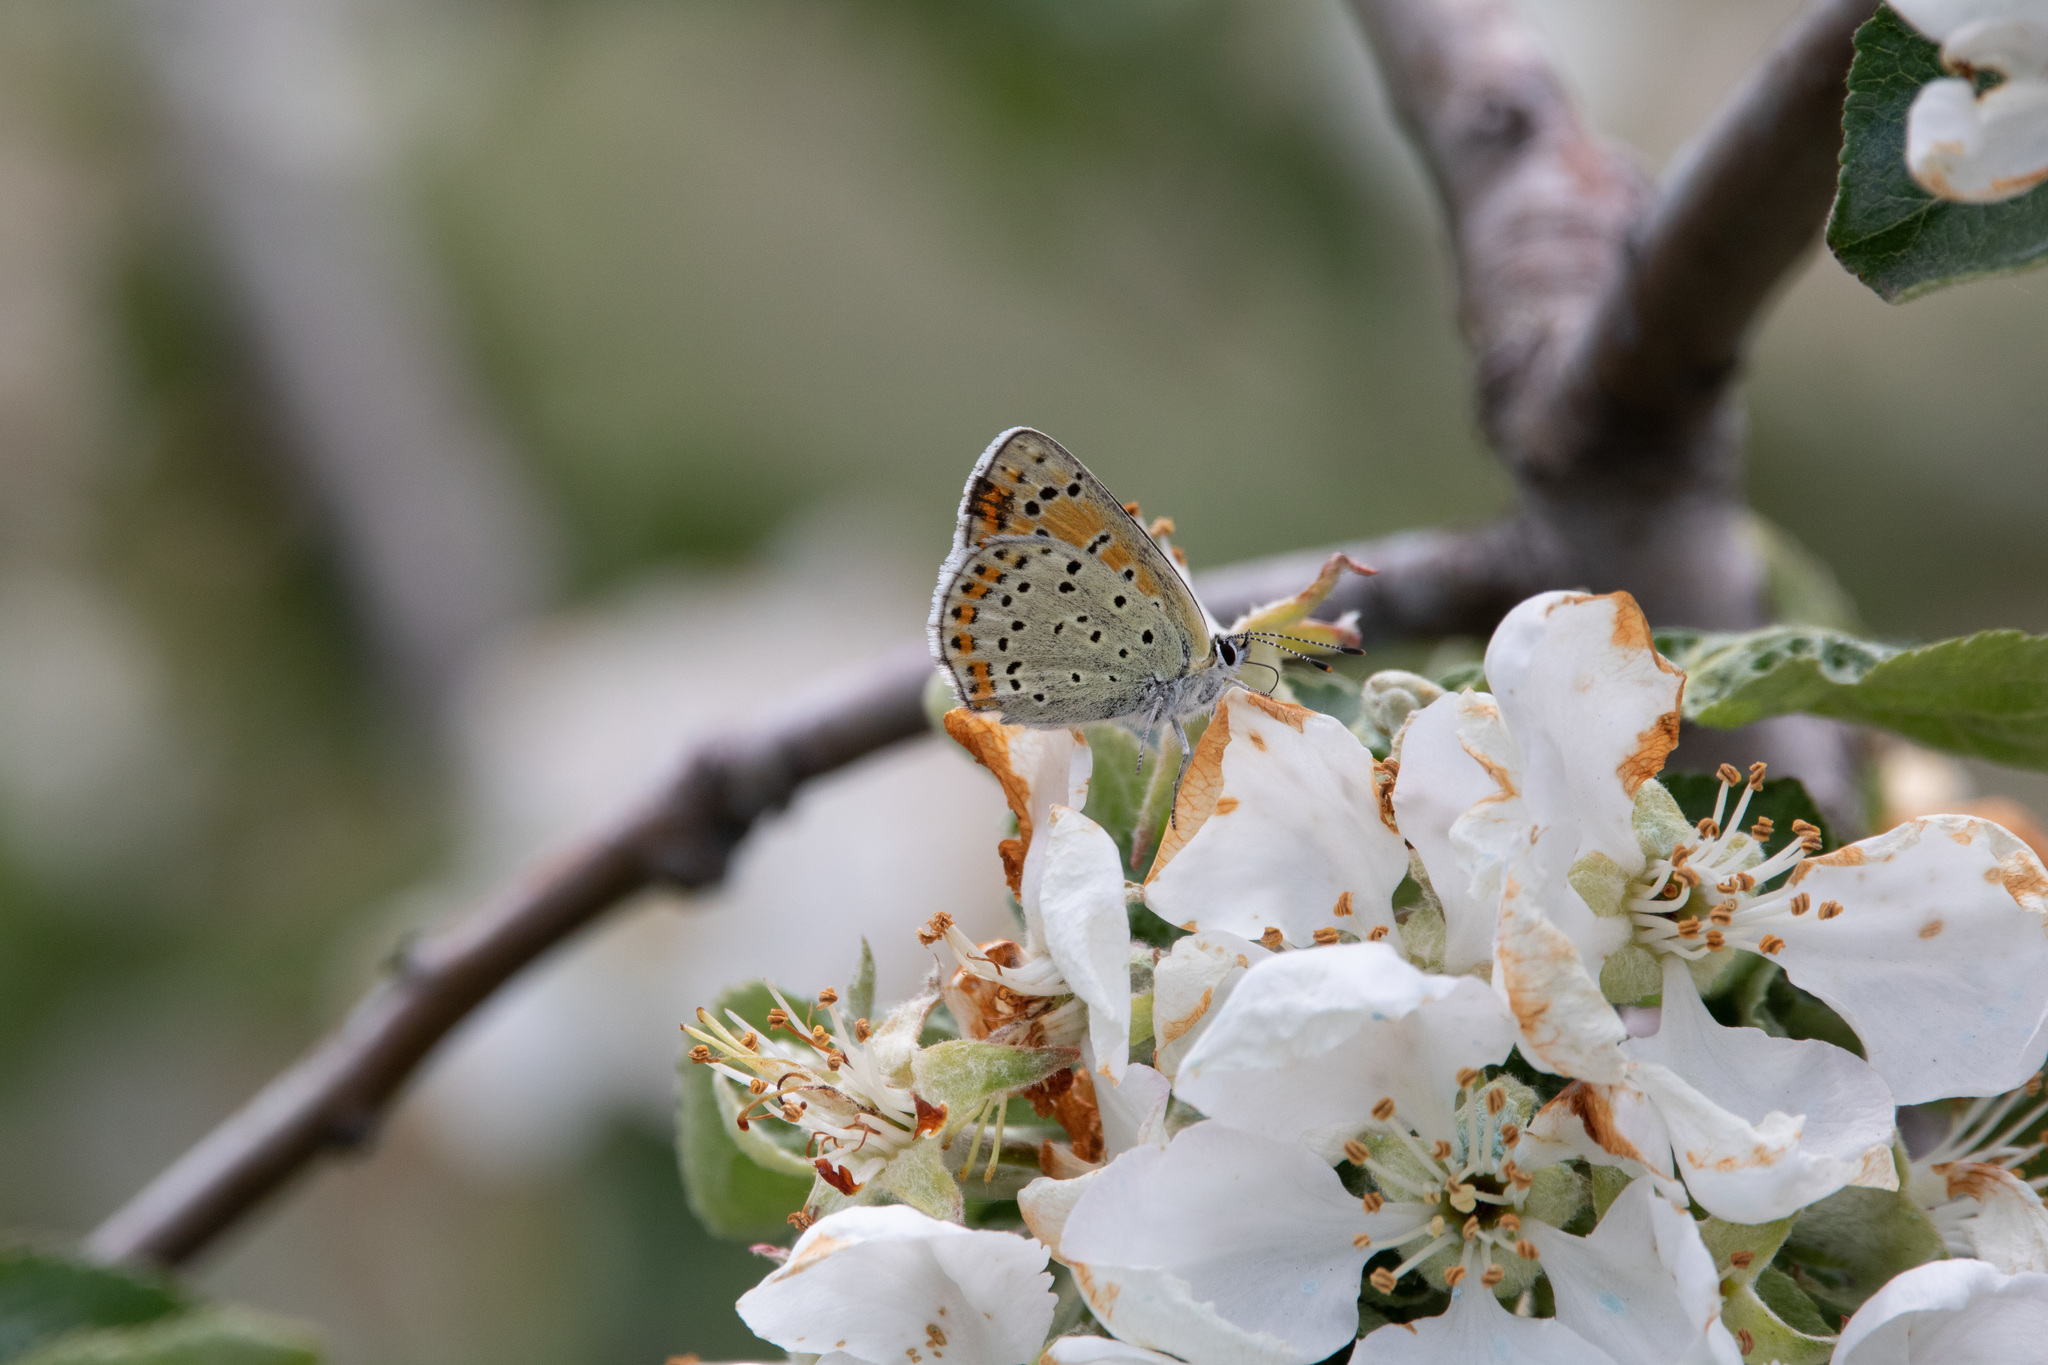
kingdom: Animalia
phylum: Arthropoda
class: Insecta
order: Lepidoptera
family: Lycaenidae
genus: Loweia
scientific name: Loweia tityrus
